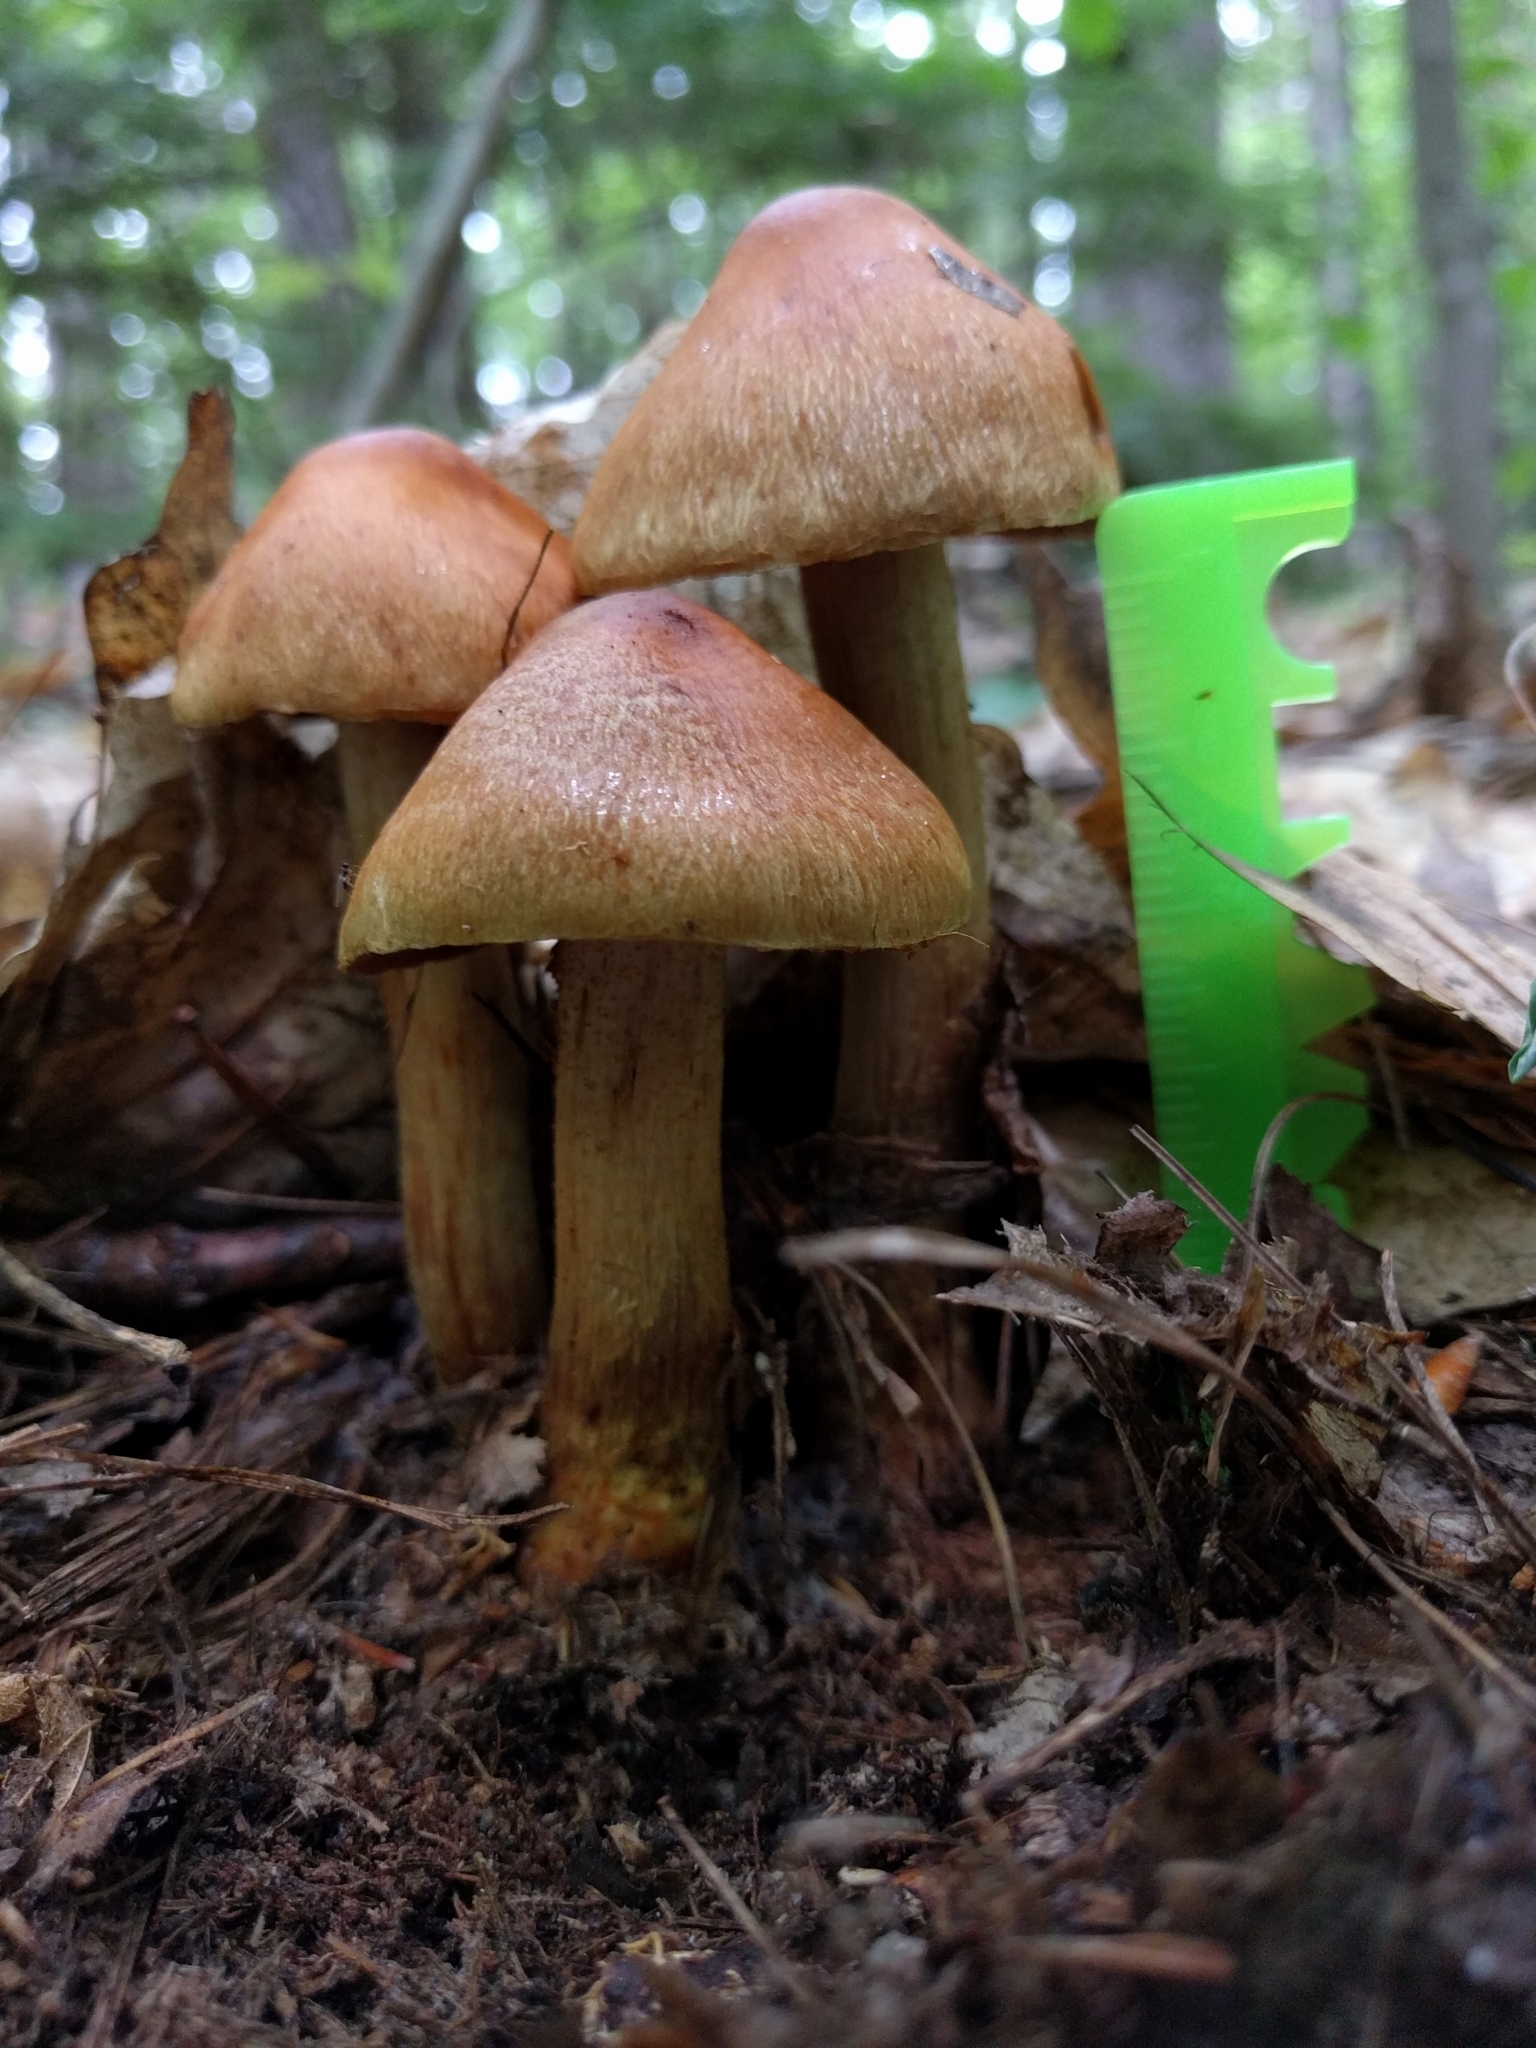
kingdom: Fungi
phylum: Basidiomycota
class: Agaricomycetes
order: Agaricales
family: Cortinariaceae
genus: Cortinarius
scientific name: Cortinarius corrugatus
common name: Wrinkled cortinarius
